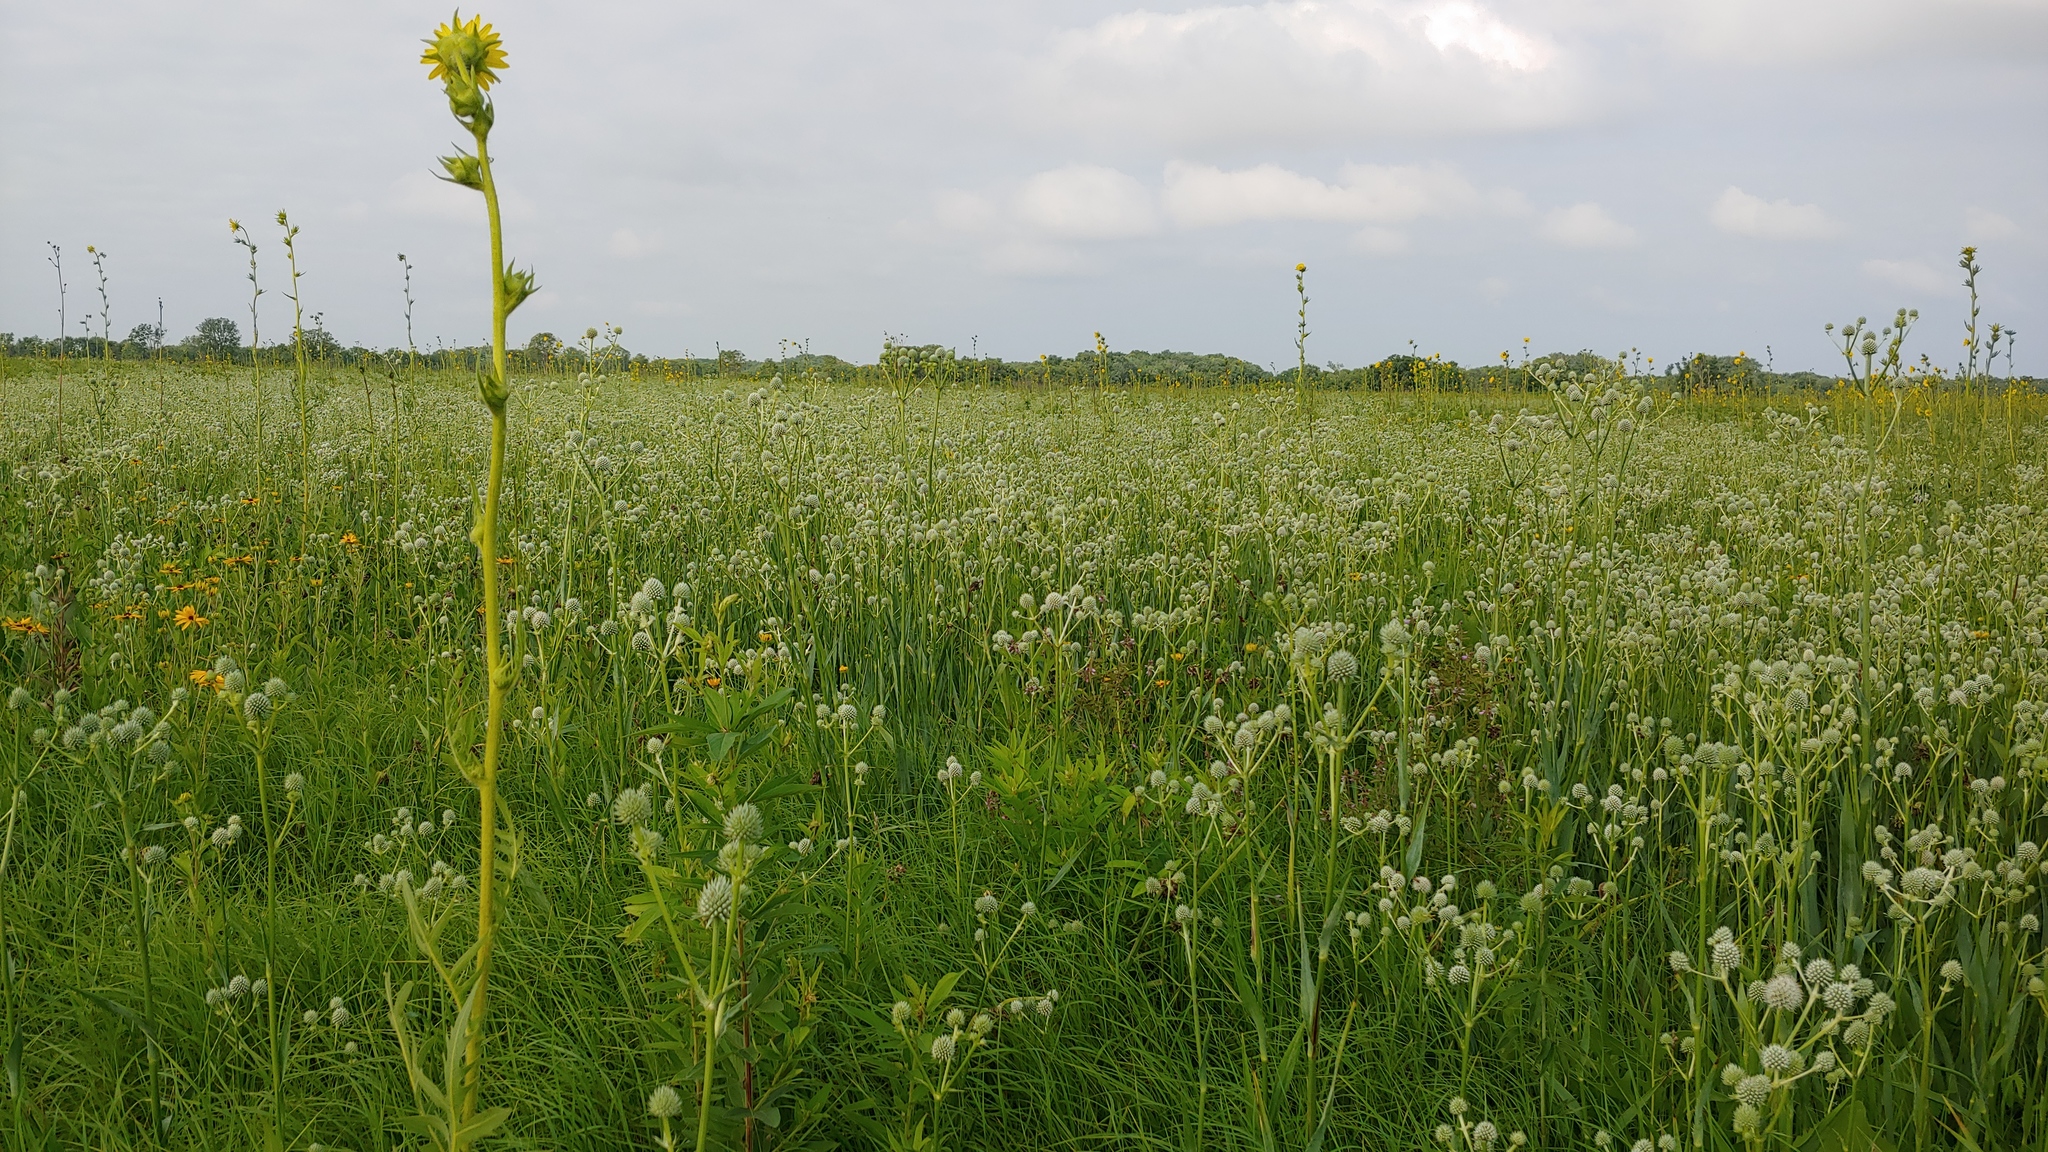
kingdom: Plantae
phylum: Tracheophyta
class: Magnoliopsida
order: Apiales
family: Apiaceae
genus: Eryngium
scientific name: Eryngium yuccifolium
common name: Button eryngo
